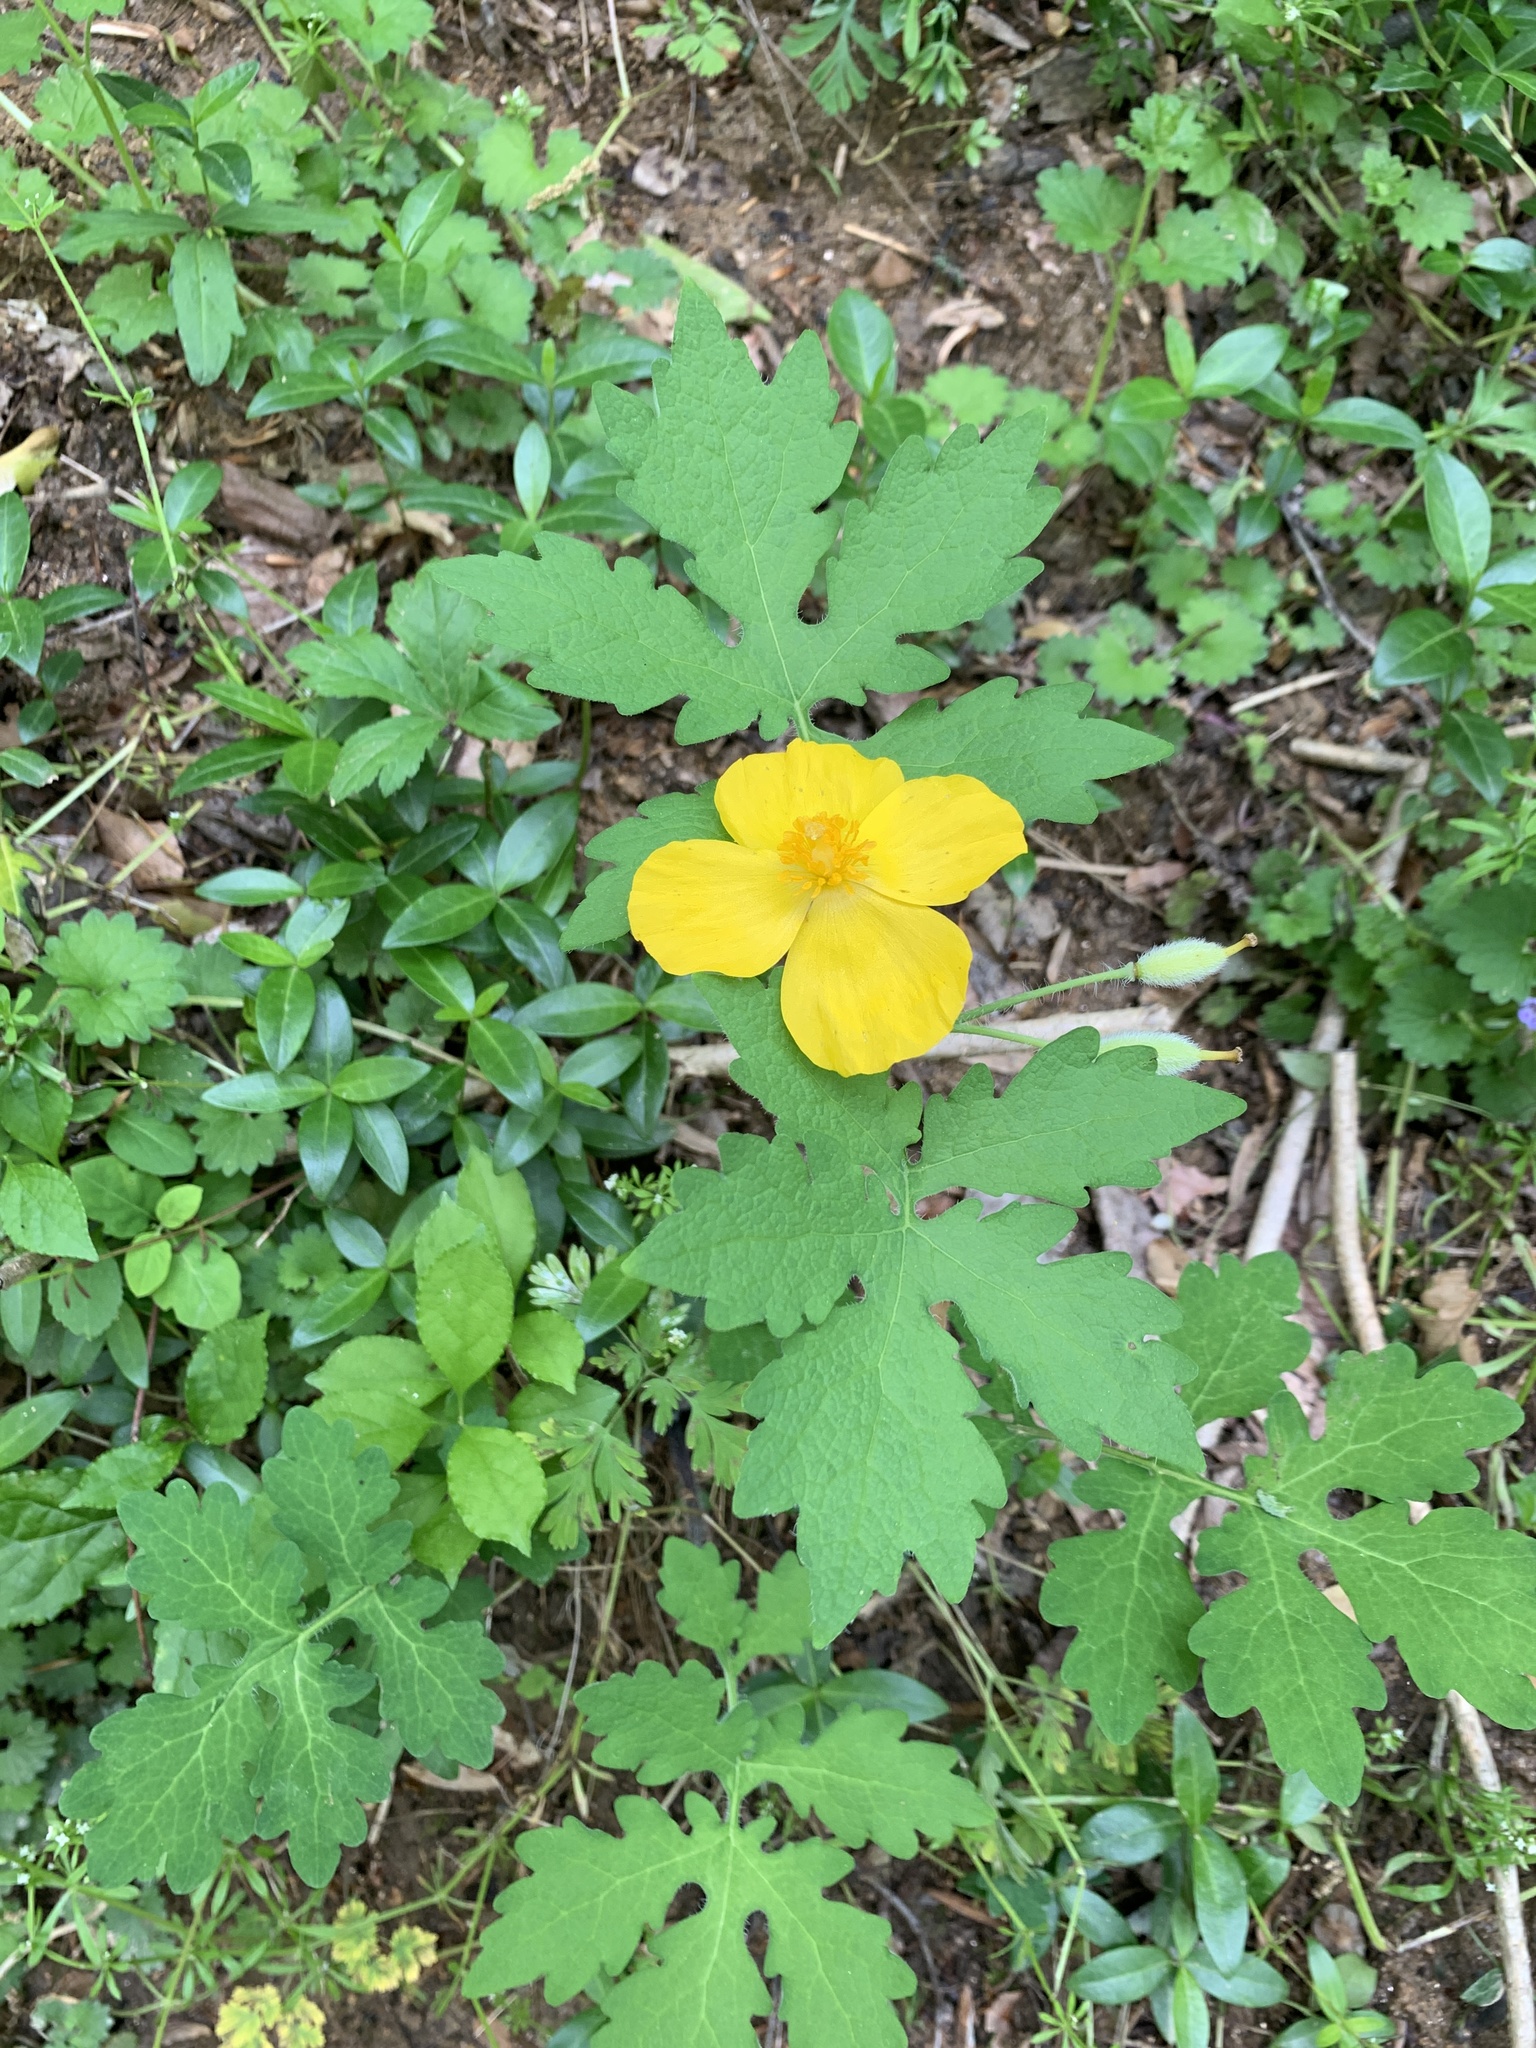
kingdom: Plantae
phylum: Tracheophyta
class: Magnoliopsida
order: Ranunculales
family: Papaveraceae
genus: Stylophorum
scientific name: Stylophorum diphyllum
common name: Celandine poppy
